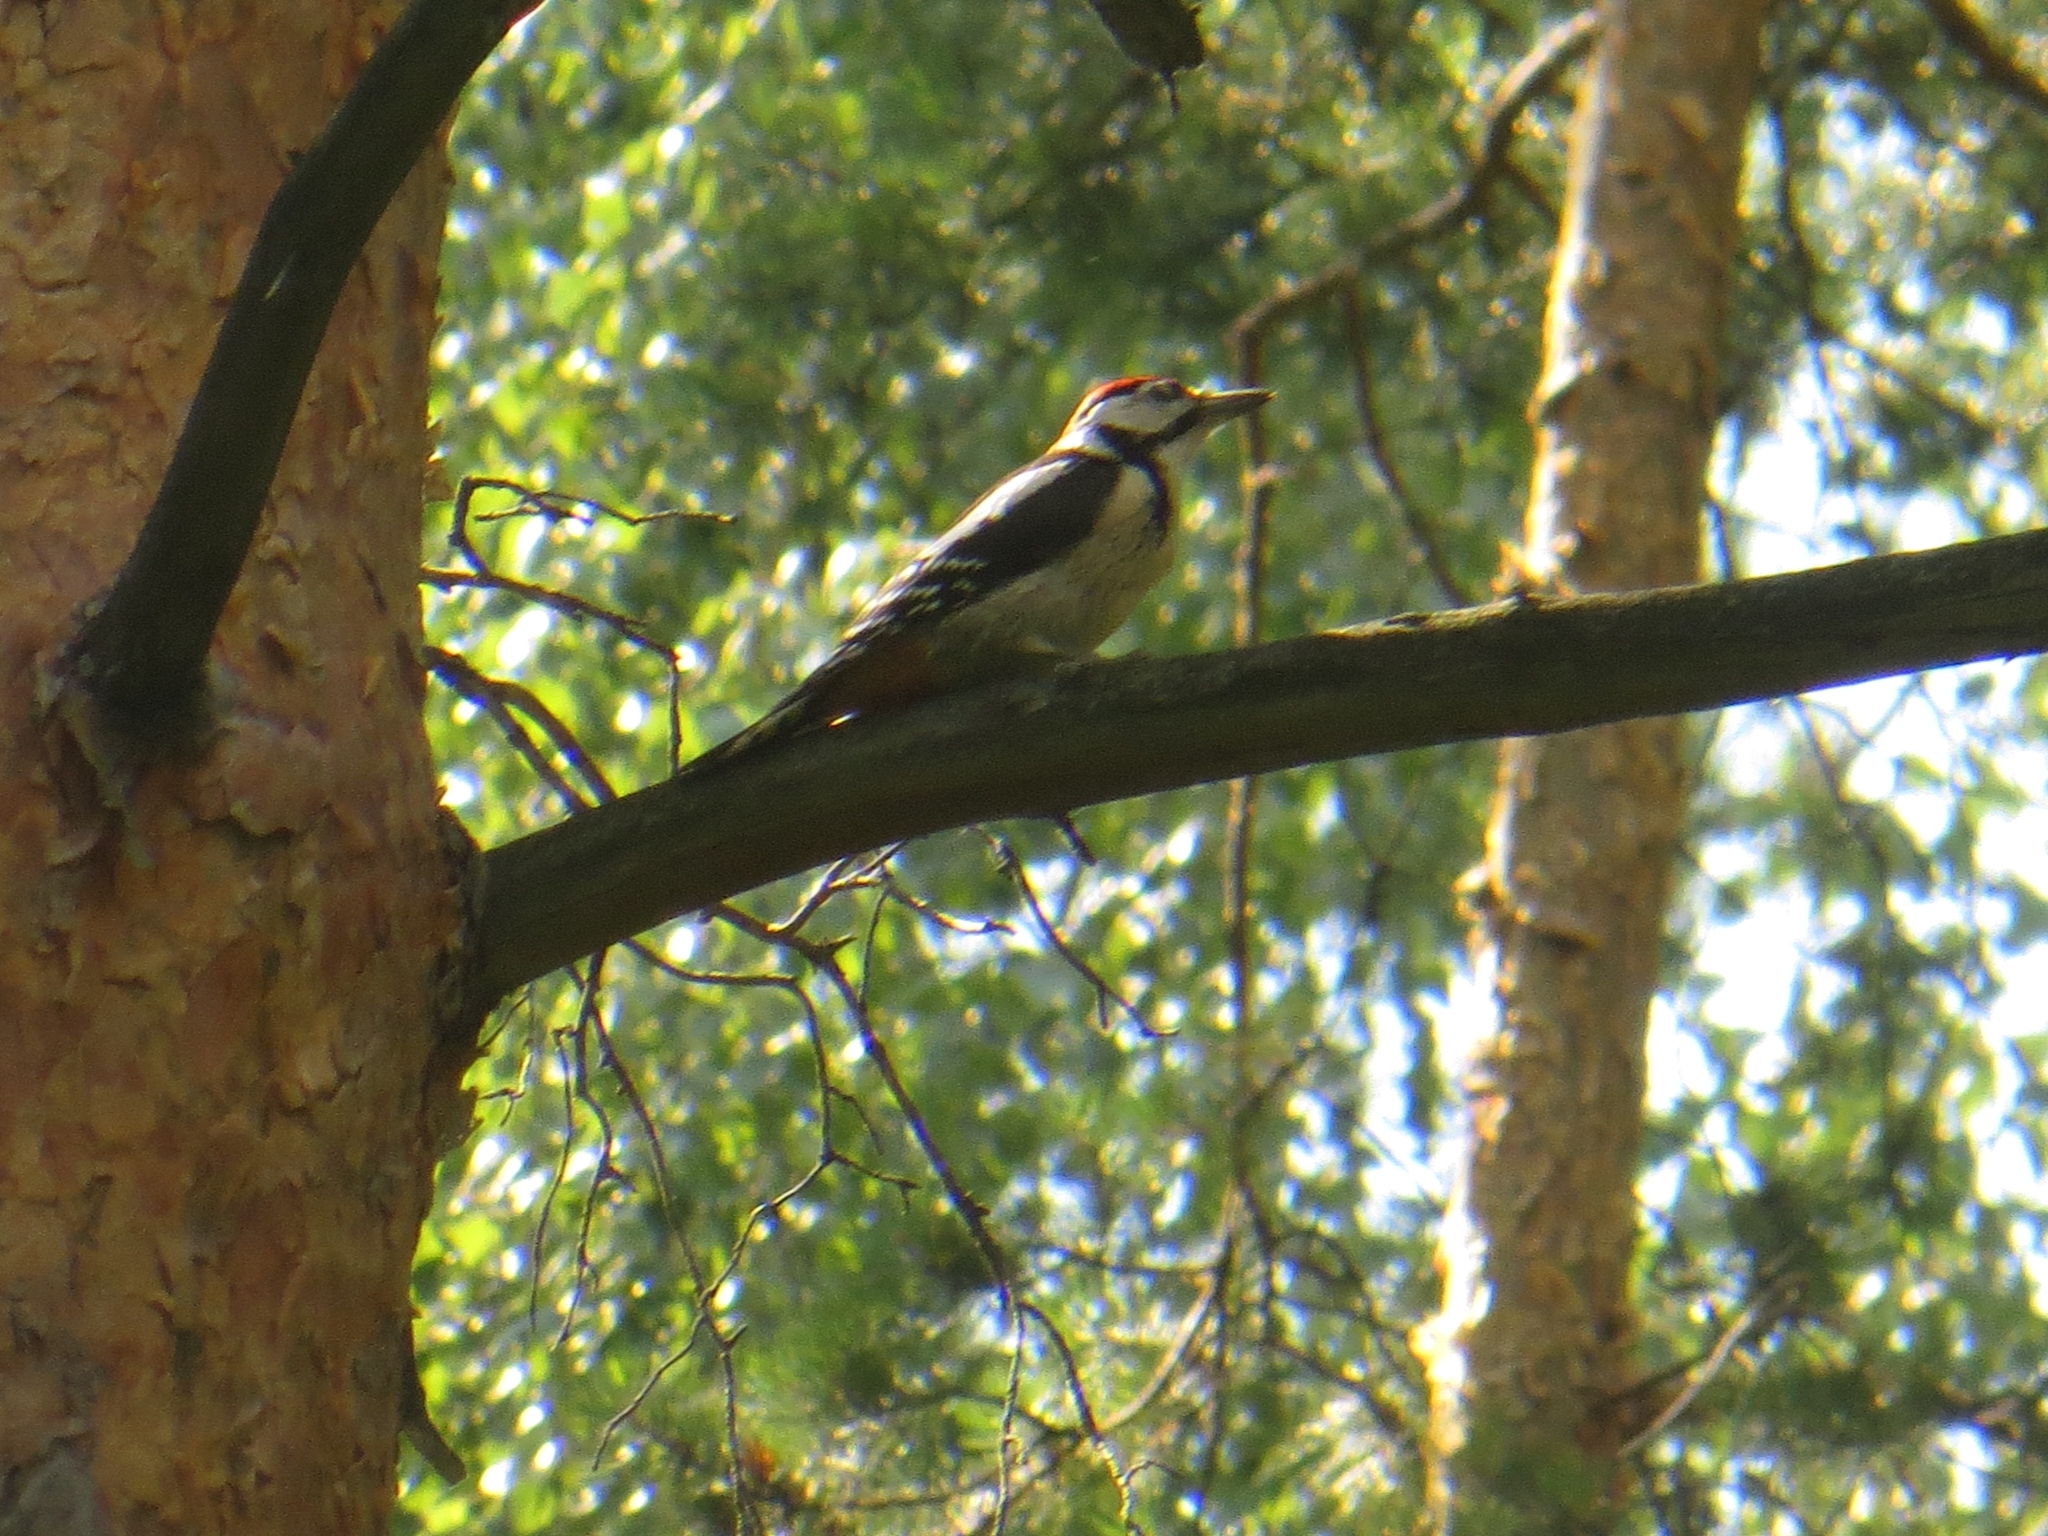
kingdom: Animalia
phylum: Chordata
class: Aves
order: Piciformes
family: Picidae
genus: Dendrocopos
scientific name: Dendrocopos major
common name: Great spotted woodpecker
